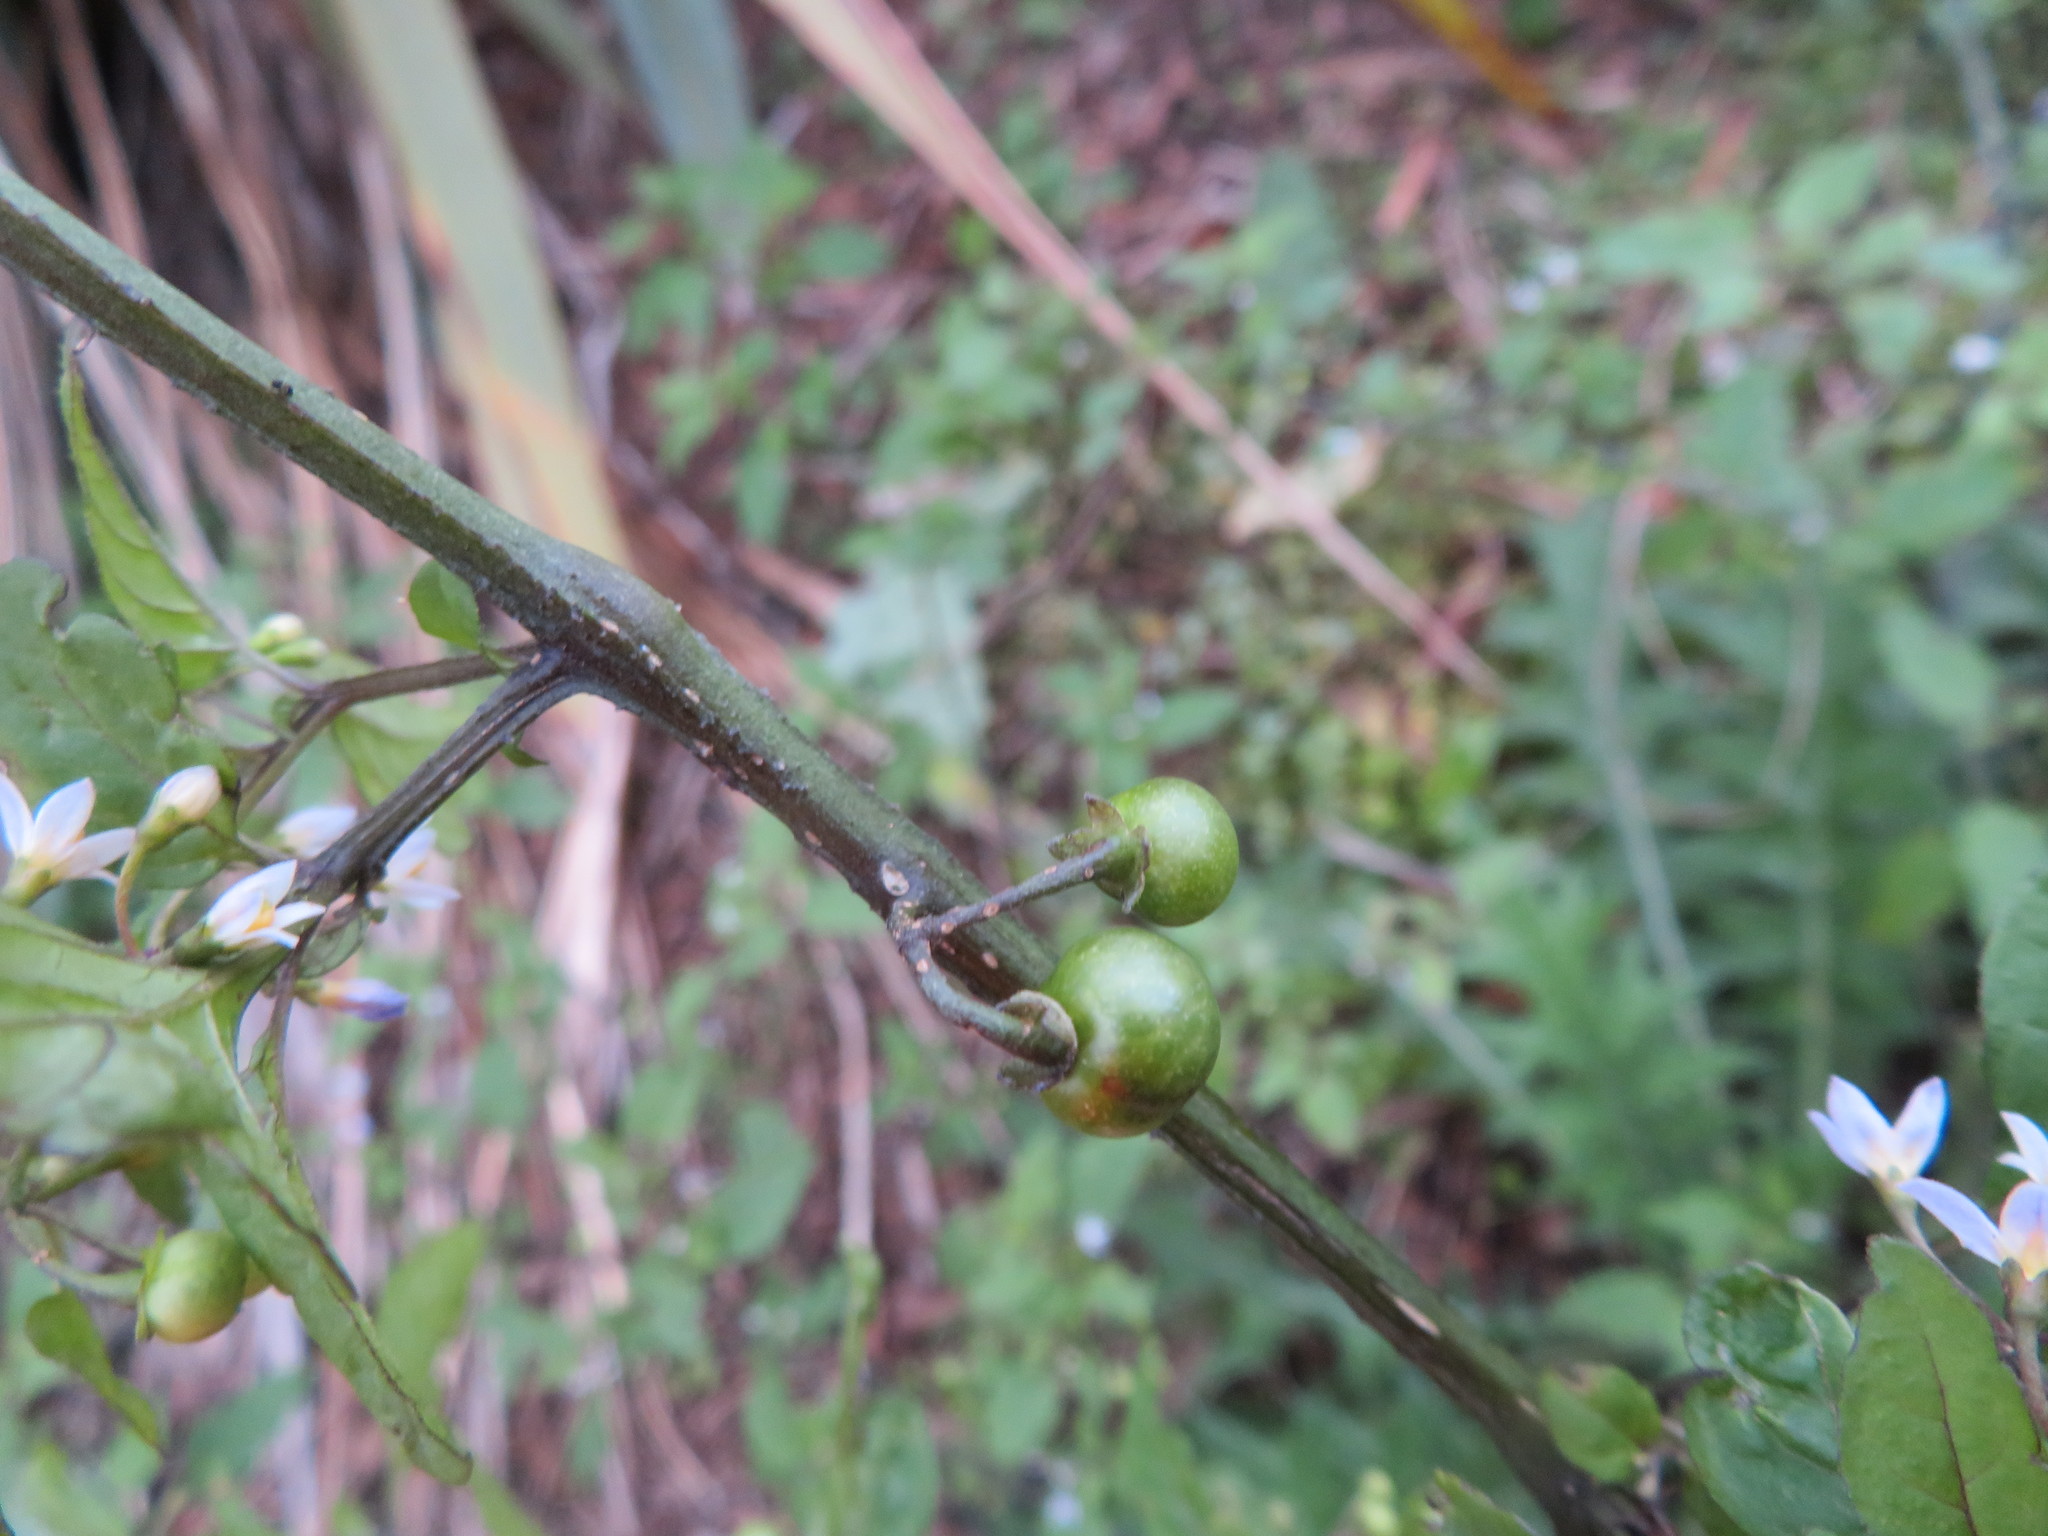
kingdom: Plantae
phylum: Tracheophyta
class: Magnoliopsida
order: Solanales
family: Solanaceae
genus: Solanum
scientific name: Solanum opacum
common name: Green-berry nightshade
